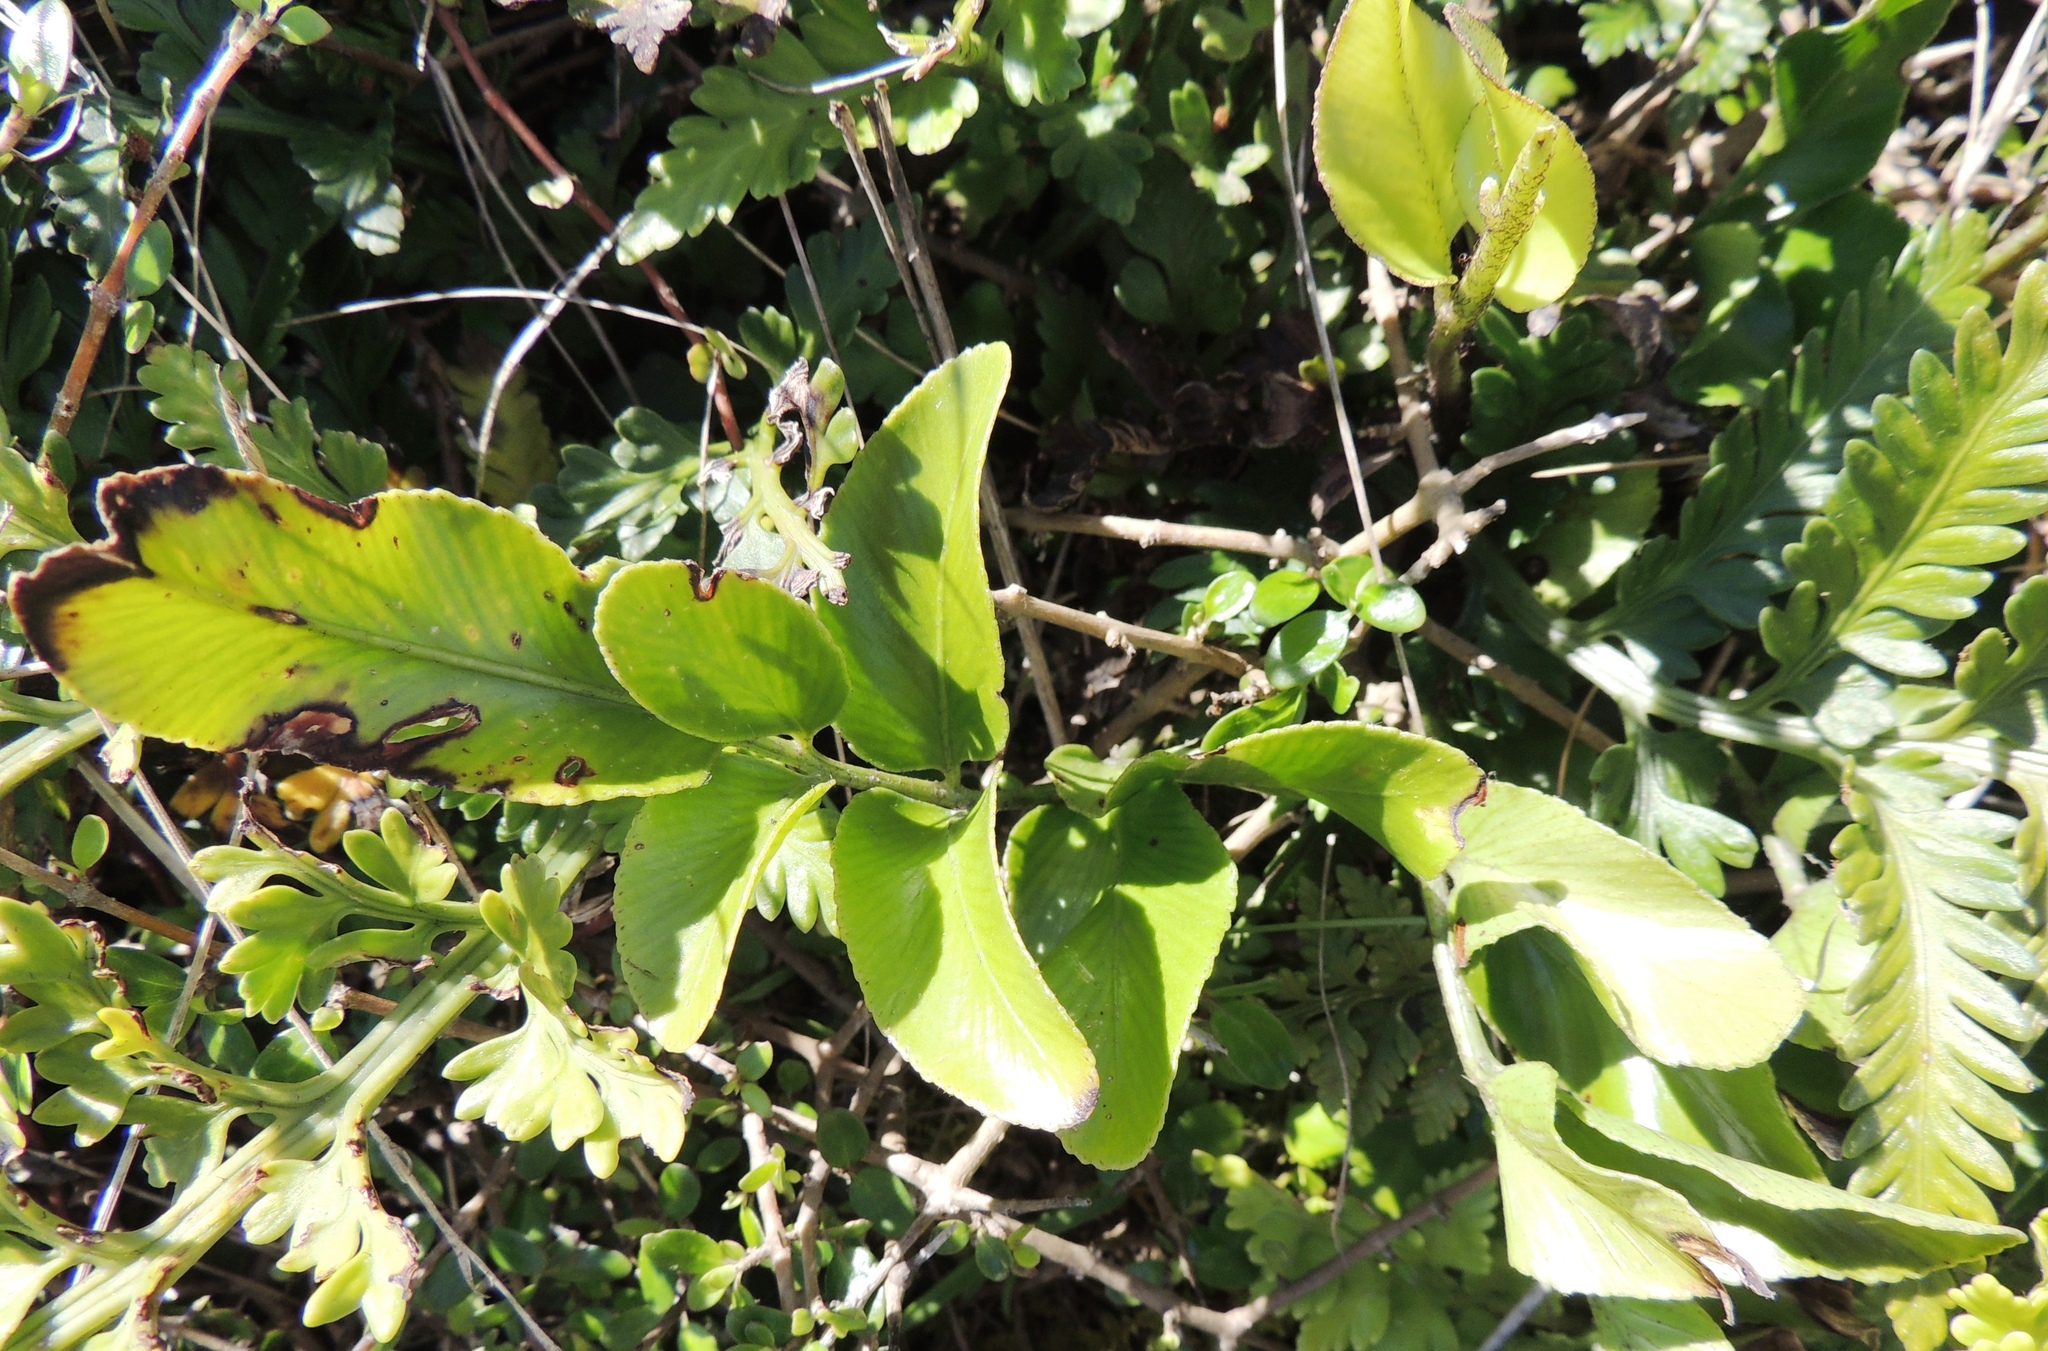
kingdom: Plantae
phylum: Tracheophyta
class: Polypodiopsida
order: Polypodiales
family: Aspleniaceae
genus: Asplenium
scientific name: Asplenium oblongifolium
